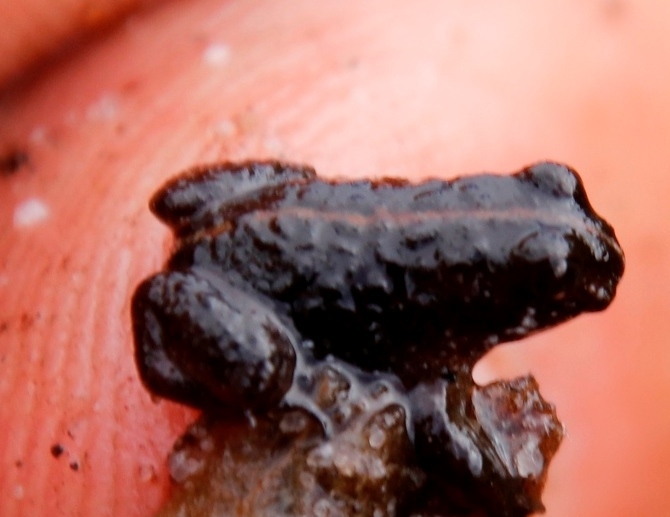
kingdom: Animalia
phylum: Chordata
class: Amphibia
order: Anura
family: Pyxicephalidae
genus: Poyntonia
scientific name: Poyntonia paludicola
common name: Montane marsh frog
